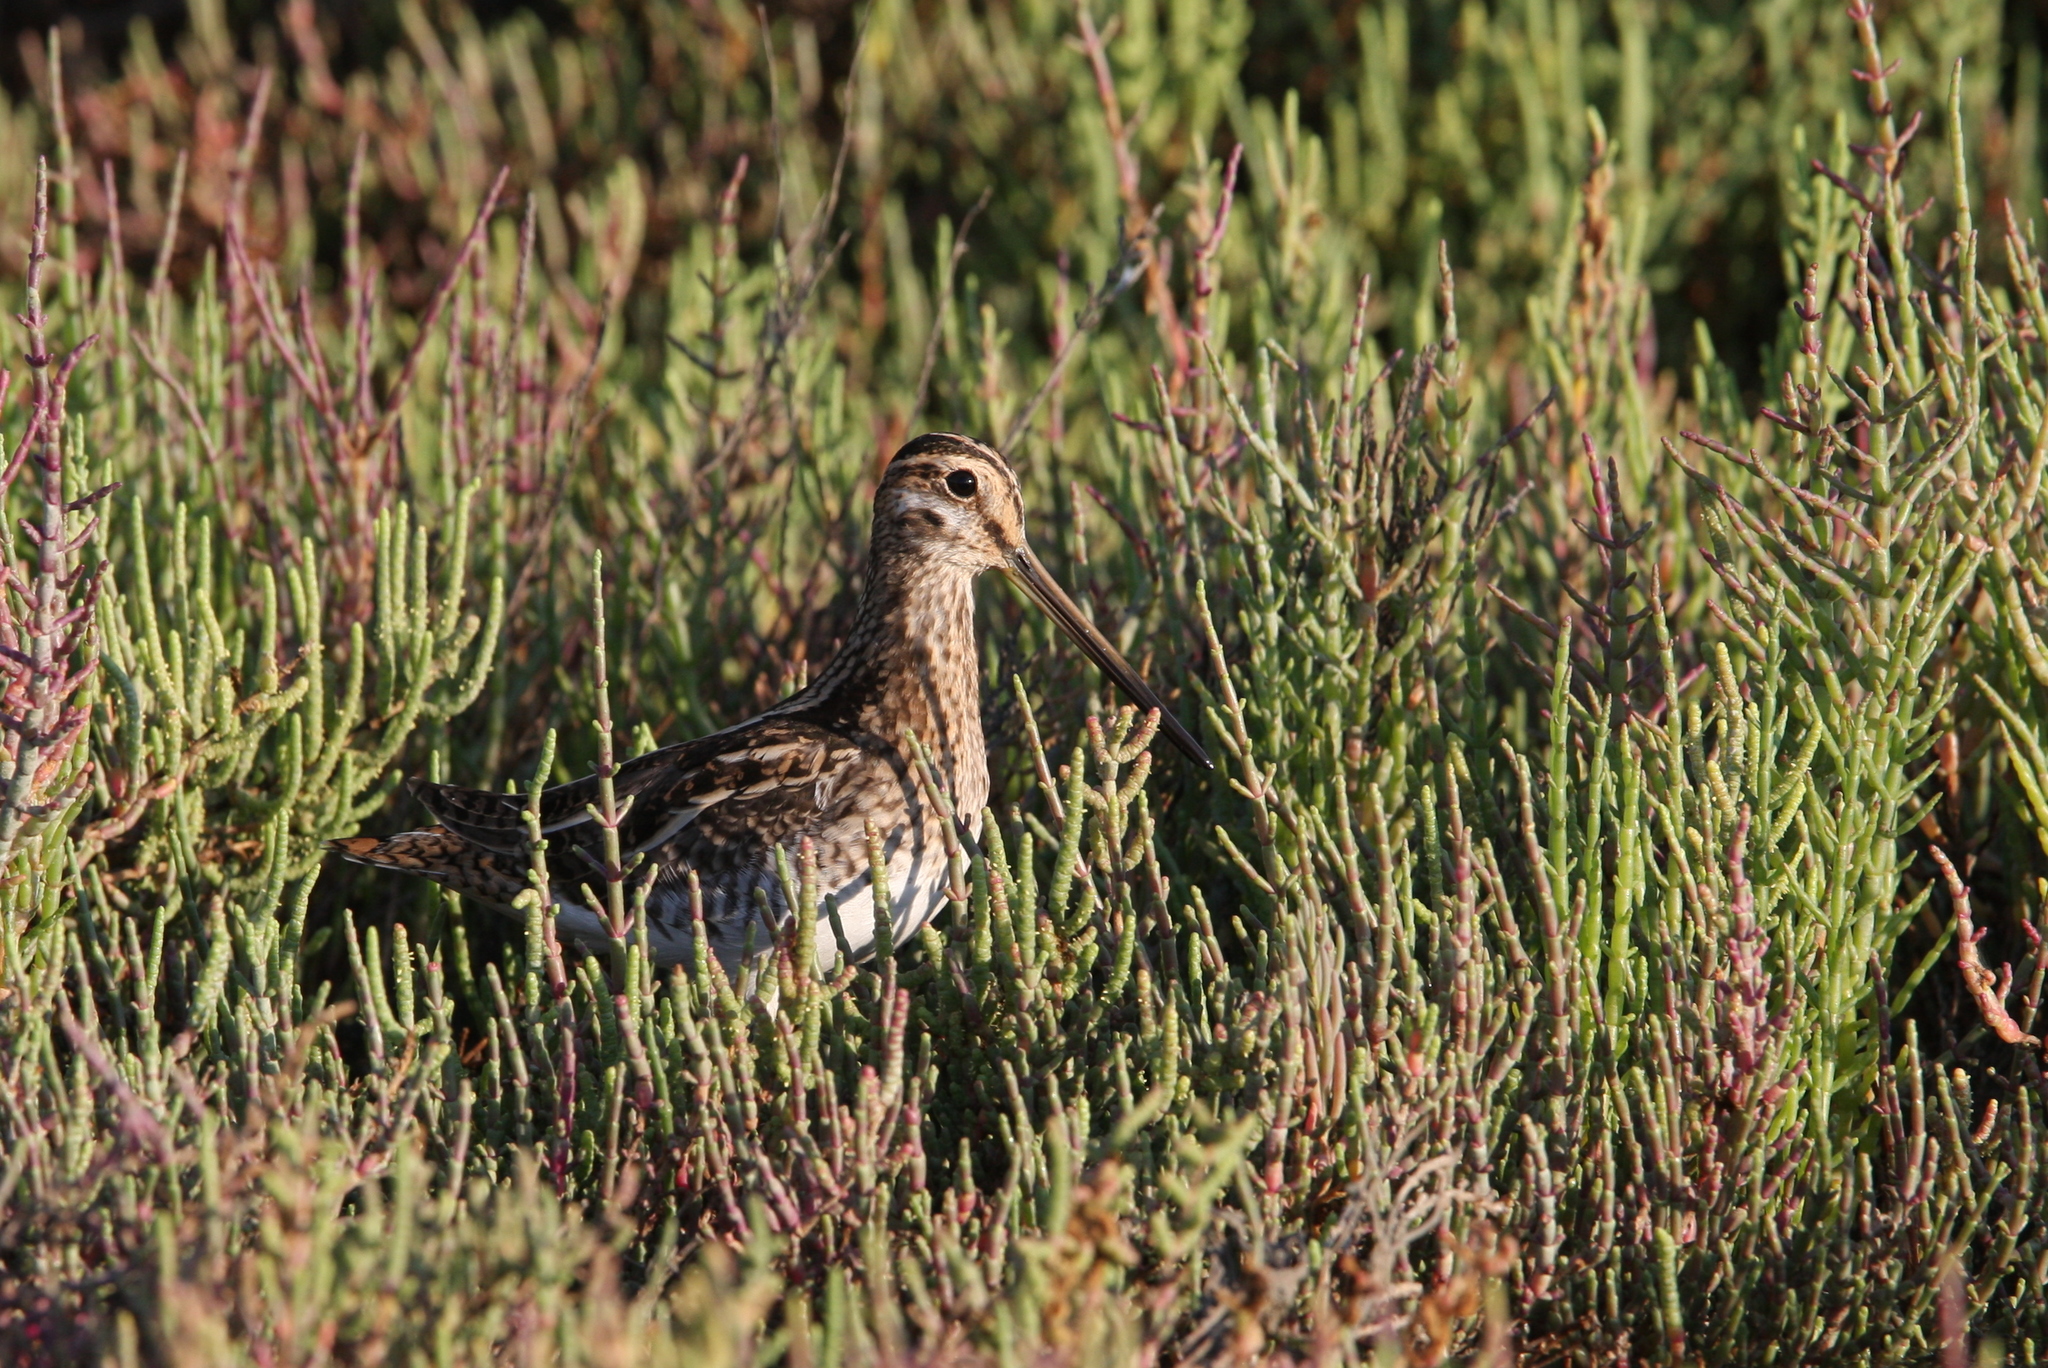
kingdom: Animalia
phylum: Chordata
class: Aves
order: Charadriiformes
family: Charadriidae
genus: Vanellus
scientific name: Vanellus spinosus
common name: Spur-winged lapwing
